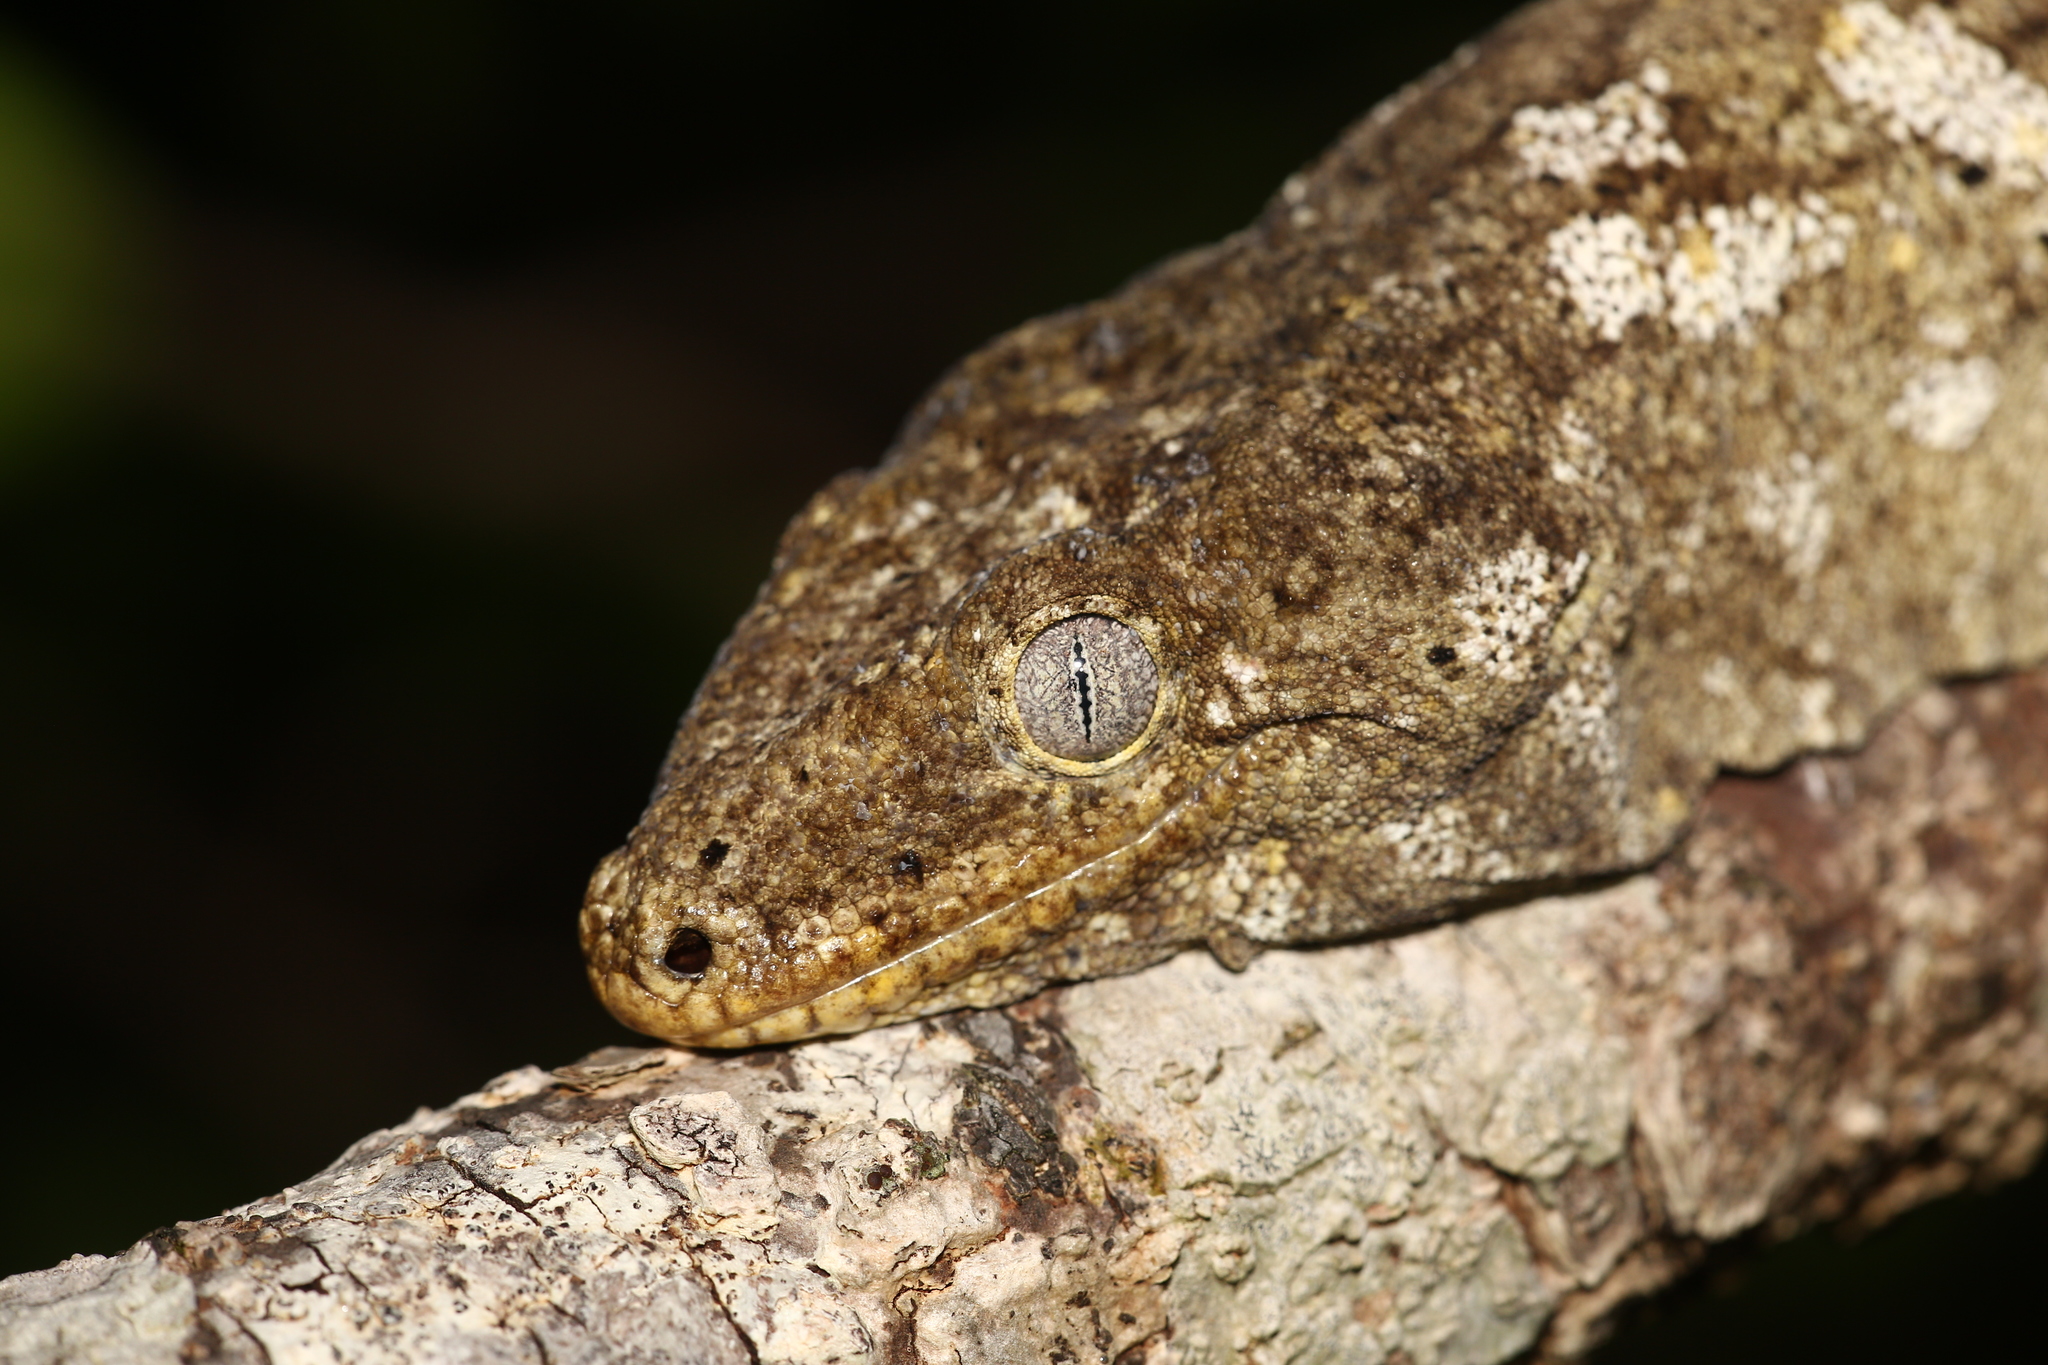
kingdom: Animalia
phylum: Chordata
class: Squamata
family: Diplodactylidae
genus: Rhacodactylus
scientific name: Rhacodactylus leachianus
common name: New caledonia giant gecko
